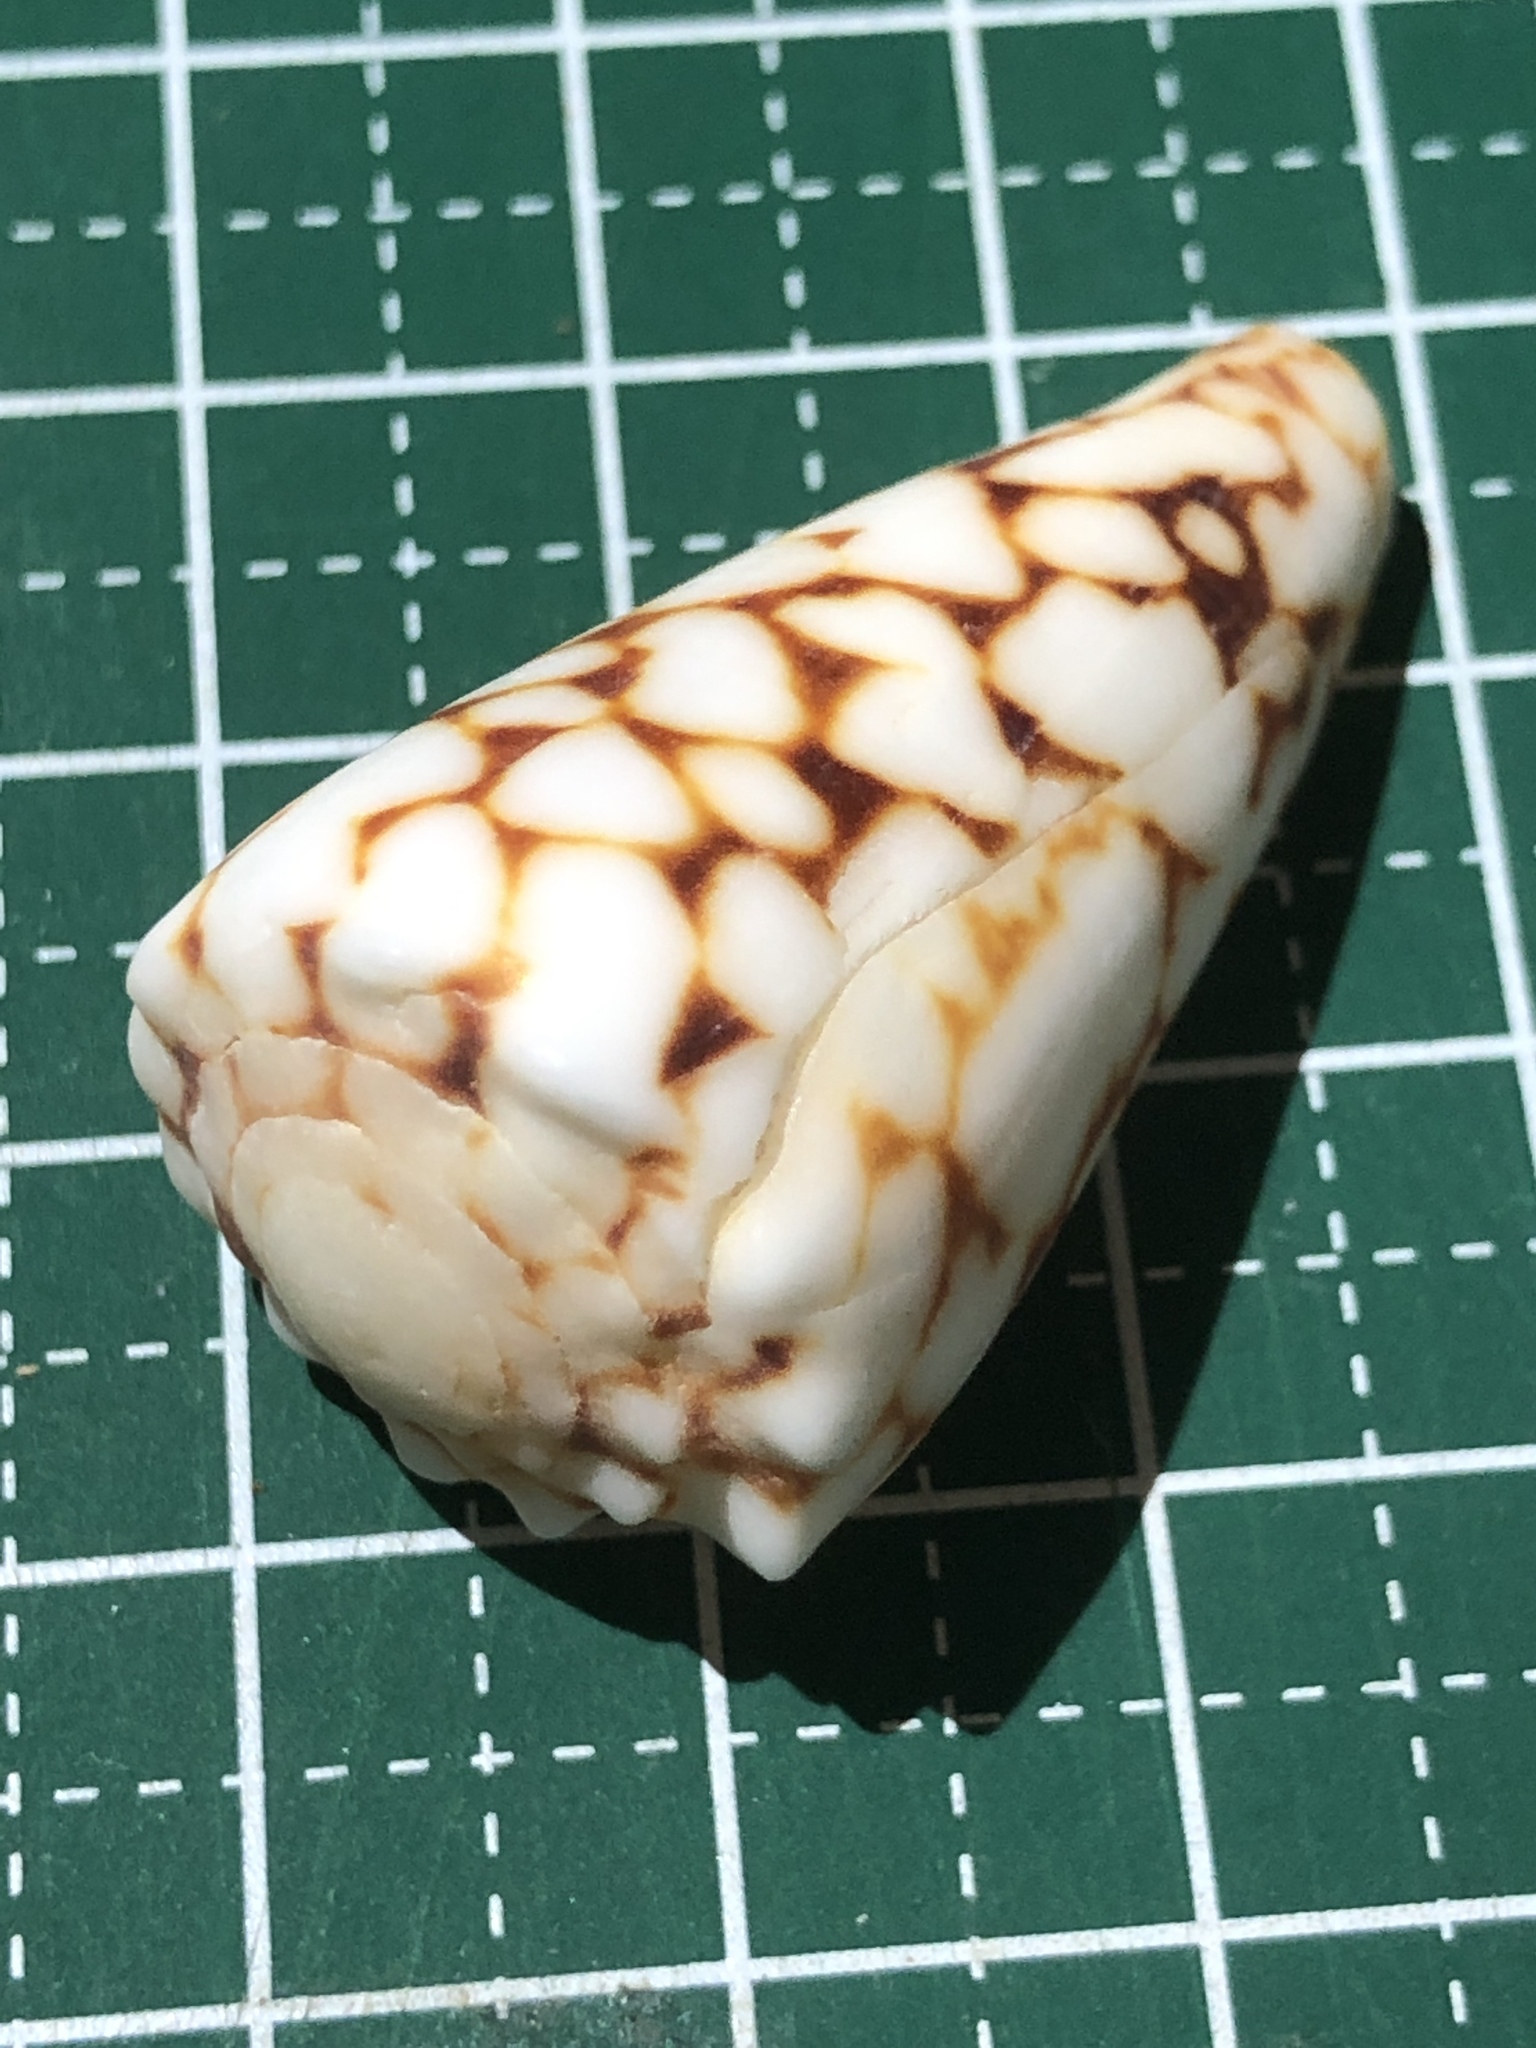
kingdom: Animalia
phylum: Mollusca
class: Gastropoda
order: Neogastropoda
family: Conidae
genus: Conus
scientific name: Conus bandanus
